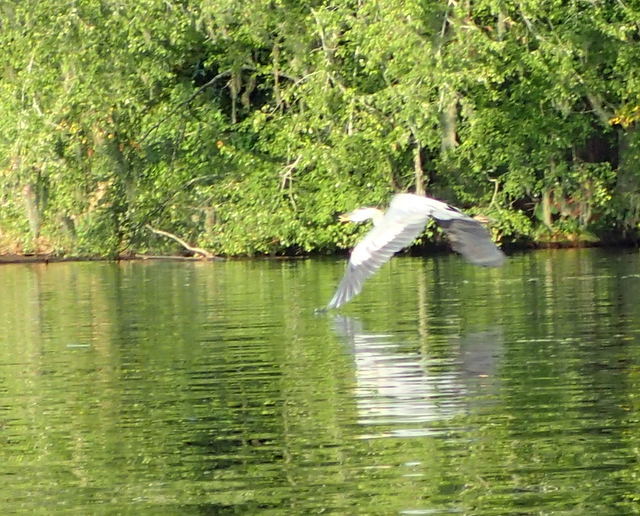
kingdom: Animalia
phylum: Chordata
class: Aves
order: Pelecaniformes
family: Ardeidae
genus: Ardea
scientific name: Ardea herodias
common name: Great blue heron
